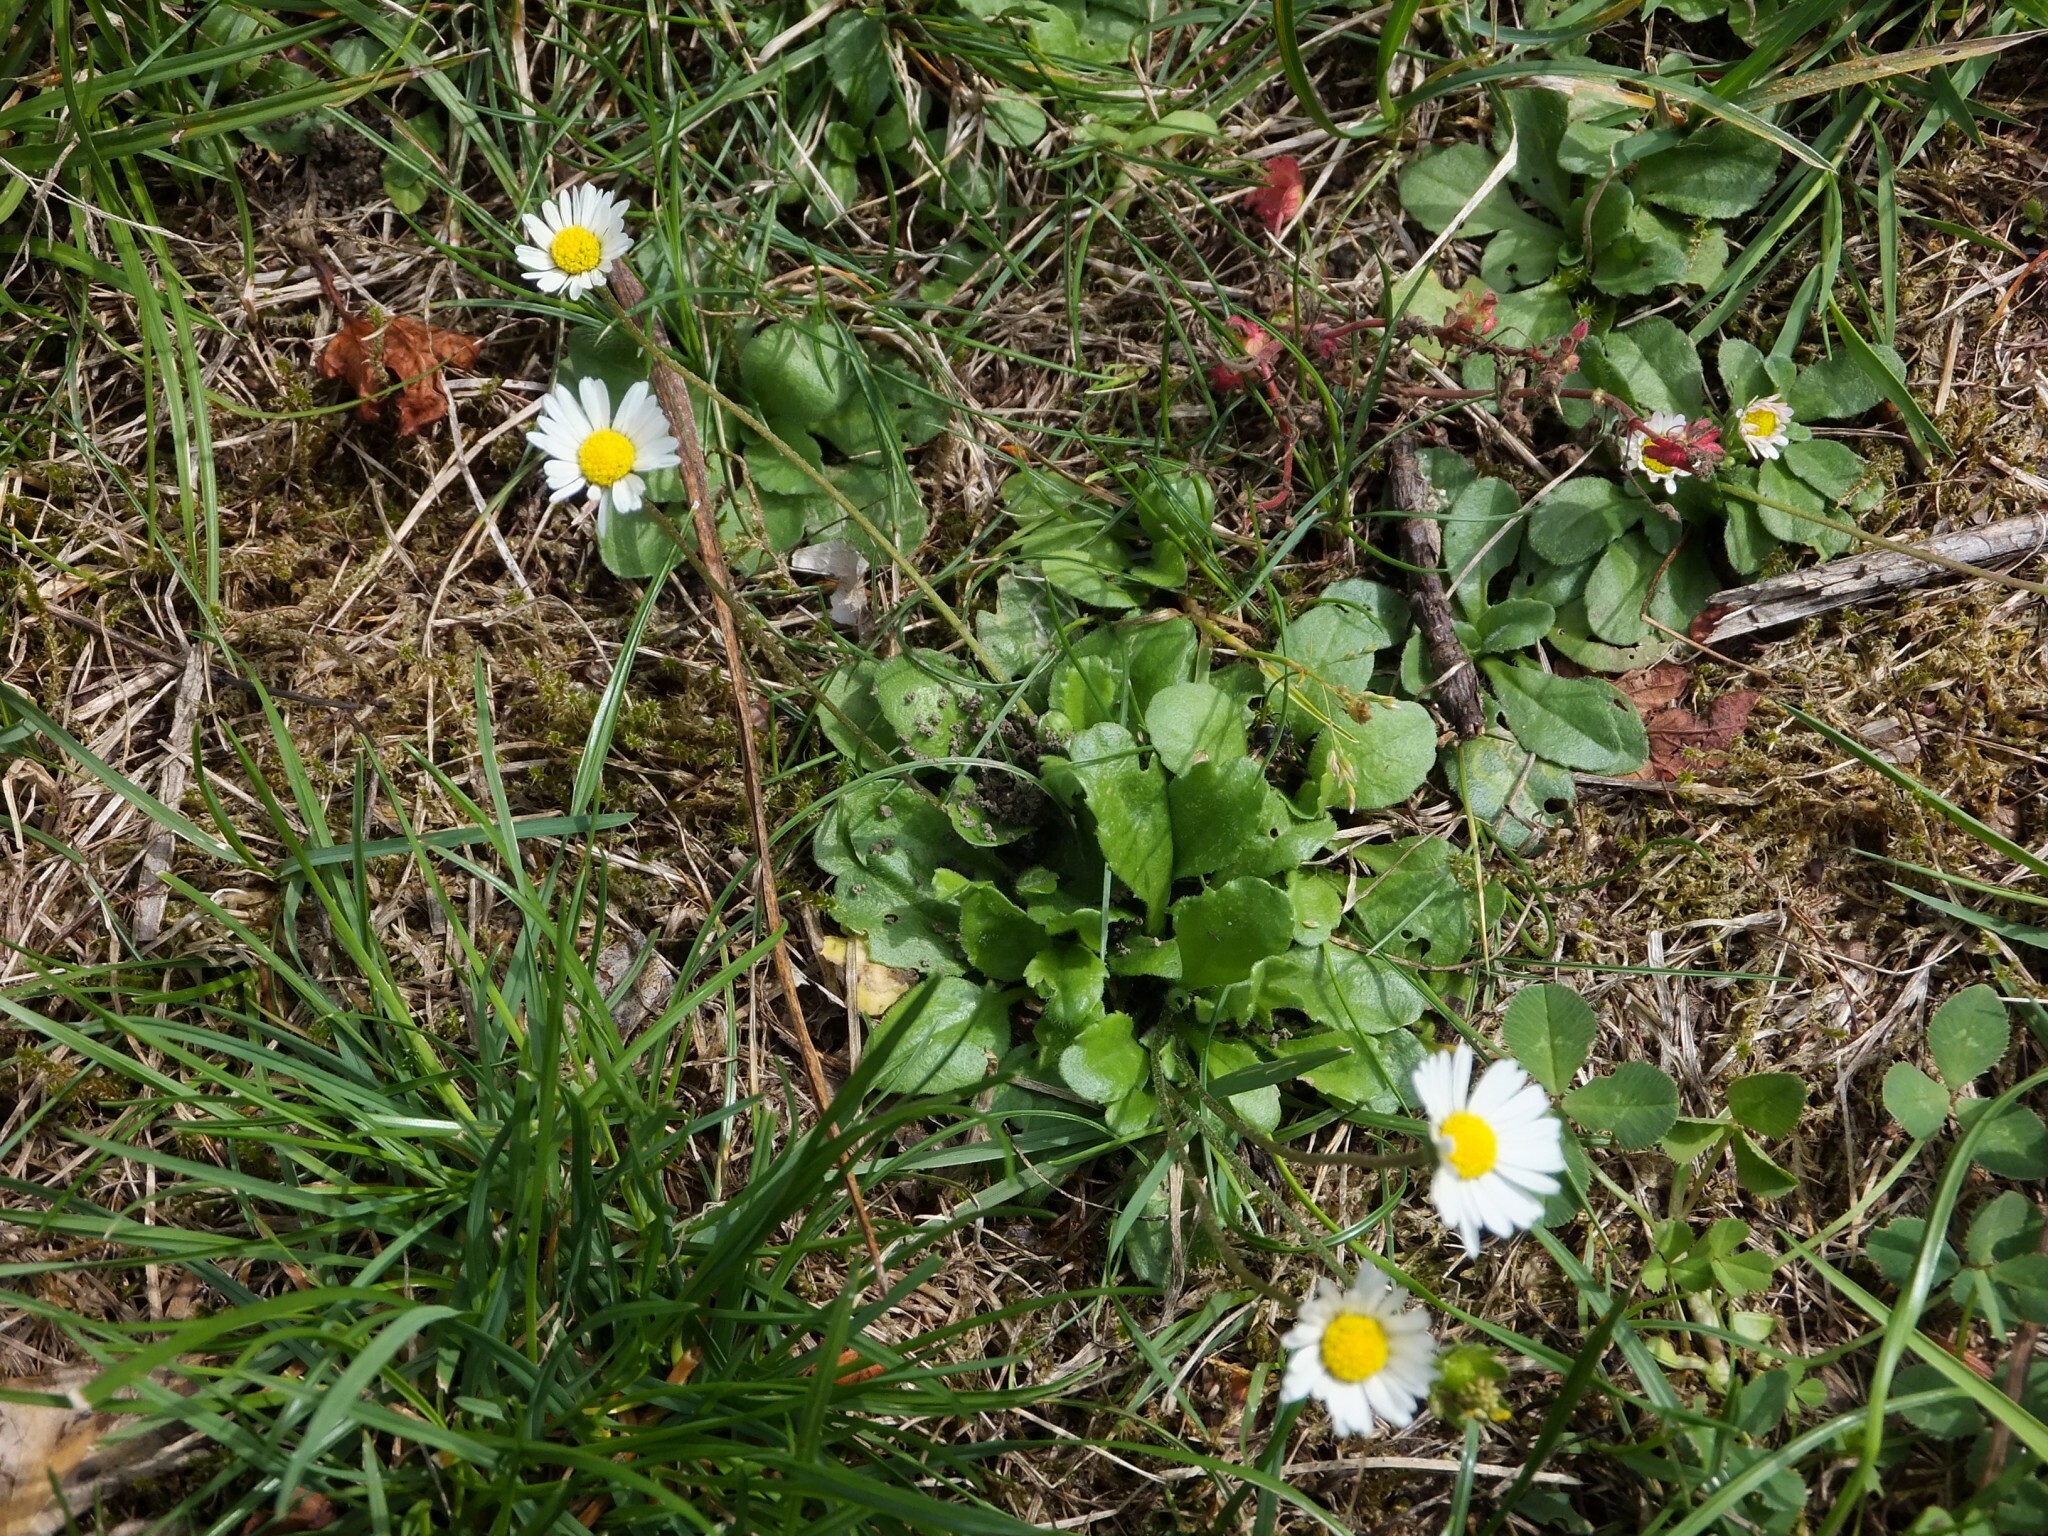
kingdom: Plantae
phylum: Tracheophyta
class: Magnoliopsida
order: Asterales
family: Asteraceae
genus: Bellis
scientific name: Bellis perennis
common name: Lawndaisy
